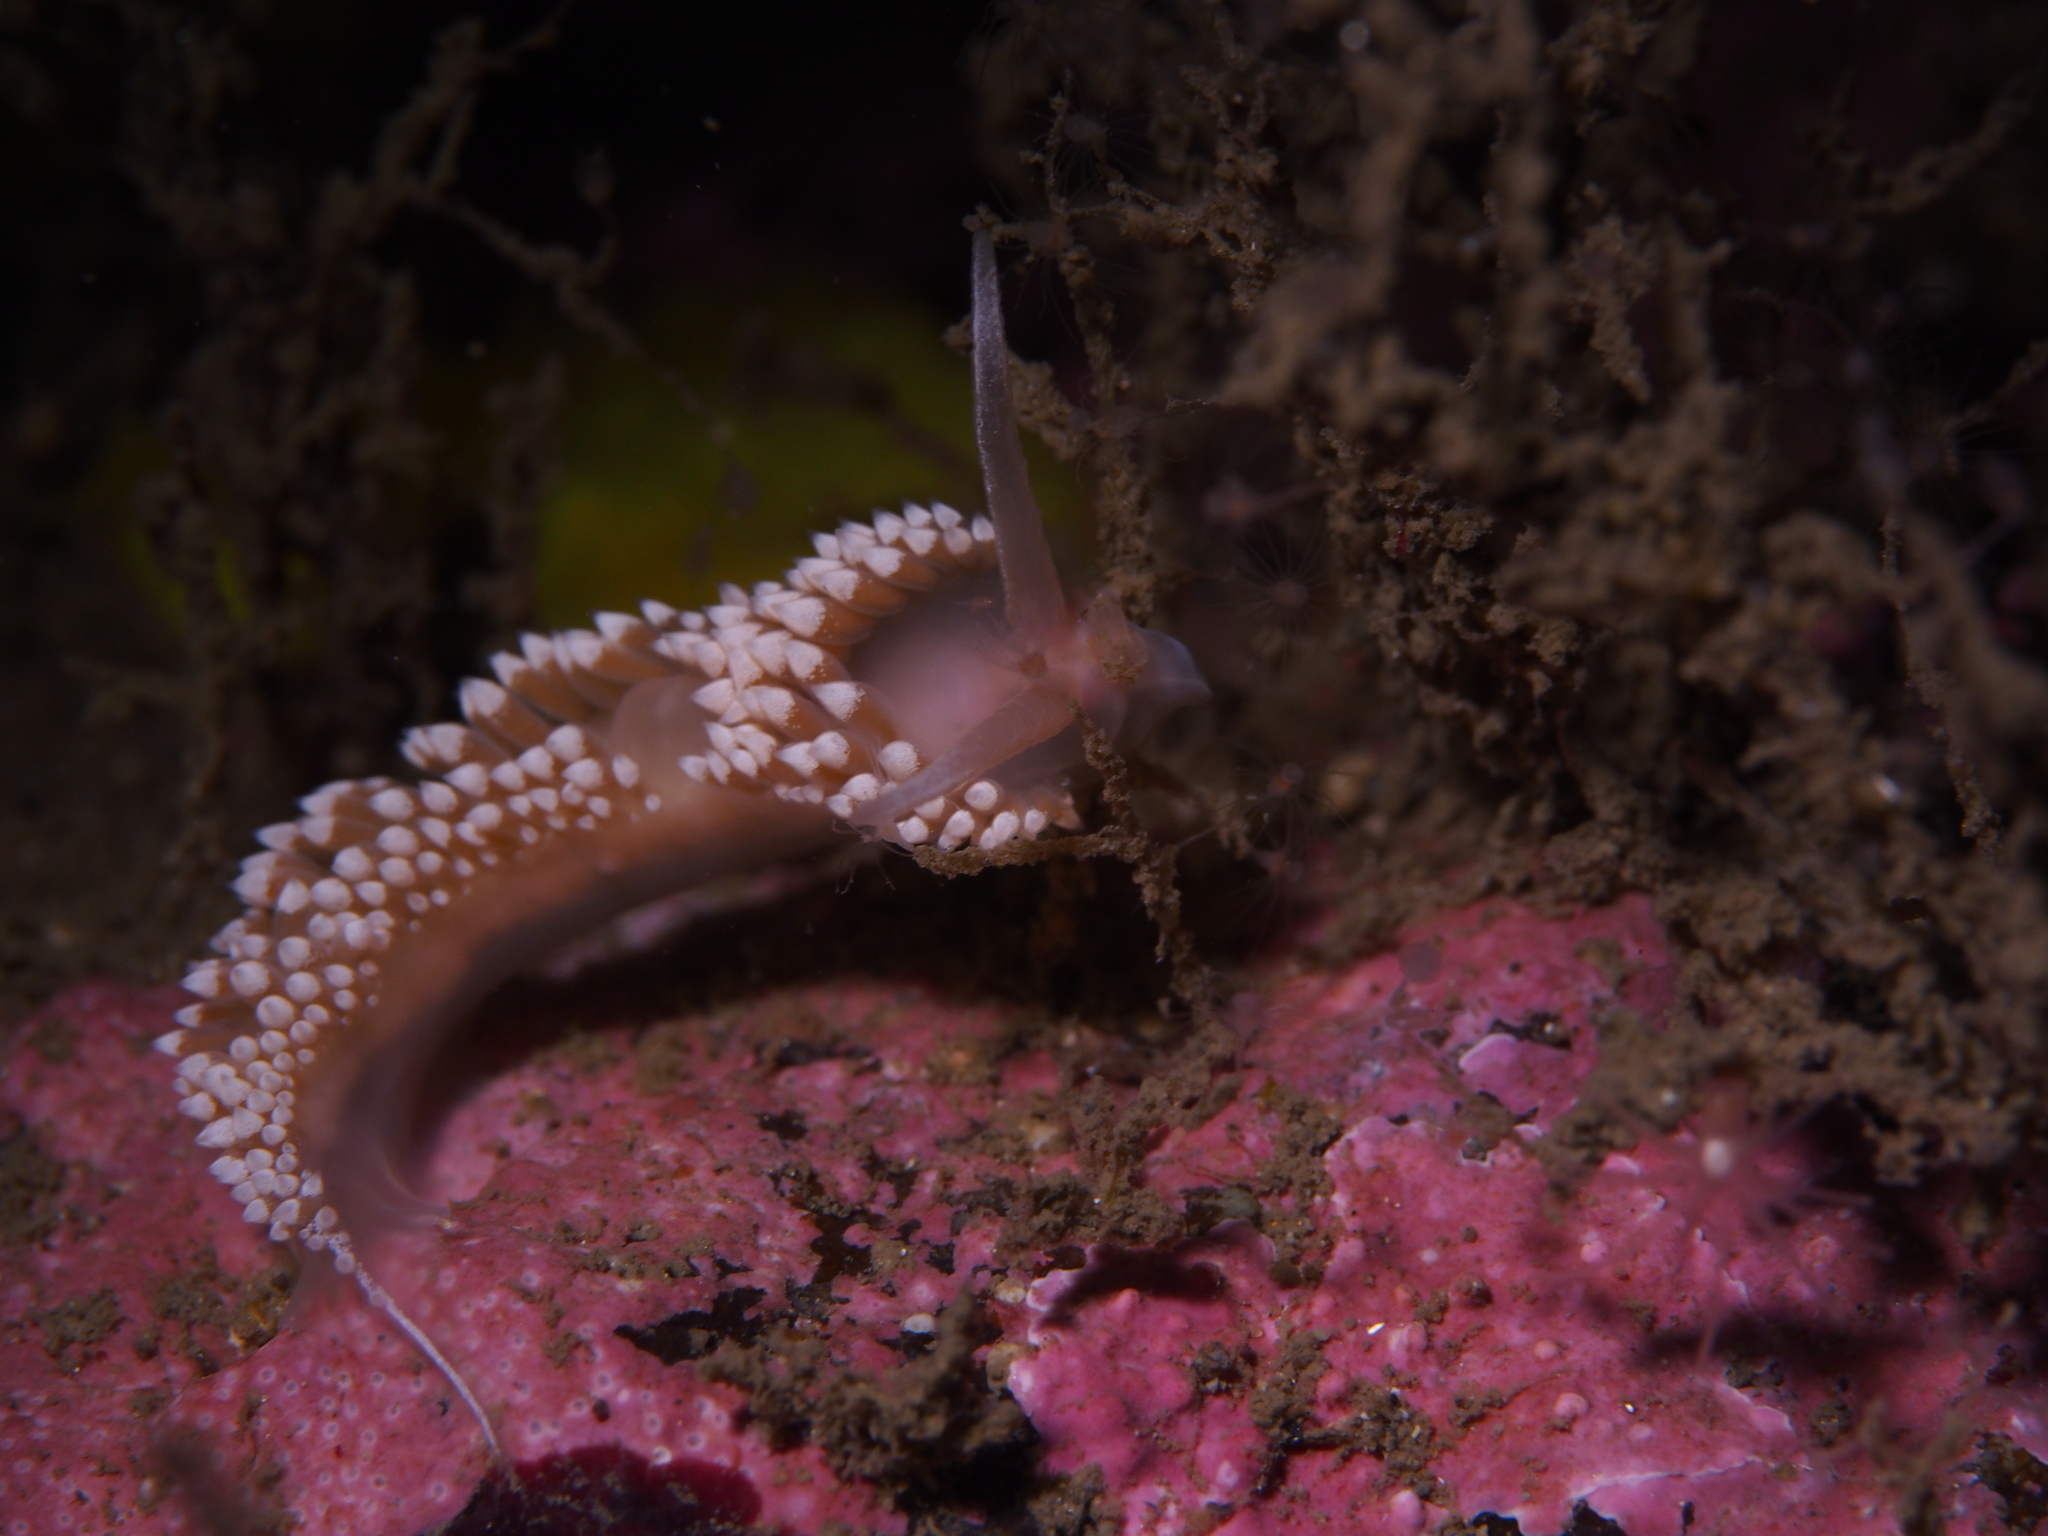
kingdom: Animalia
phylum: Mollusca
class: Gastropoda
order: Nudibranchia
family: Coryphellidae
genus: Coryphella
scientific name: Coryphella verrucosa
